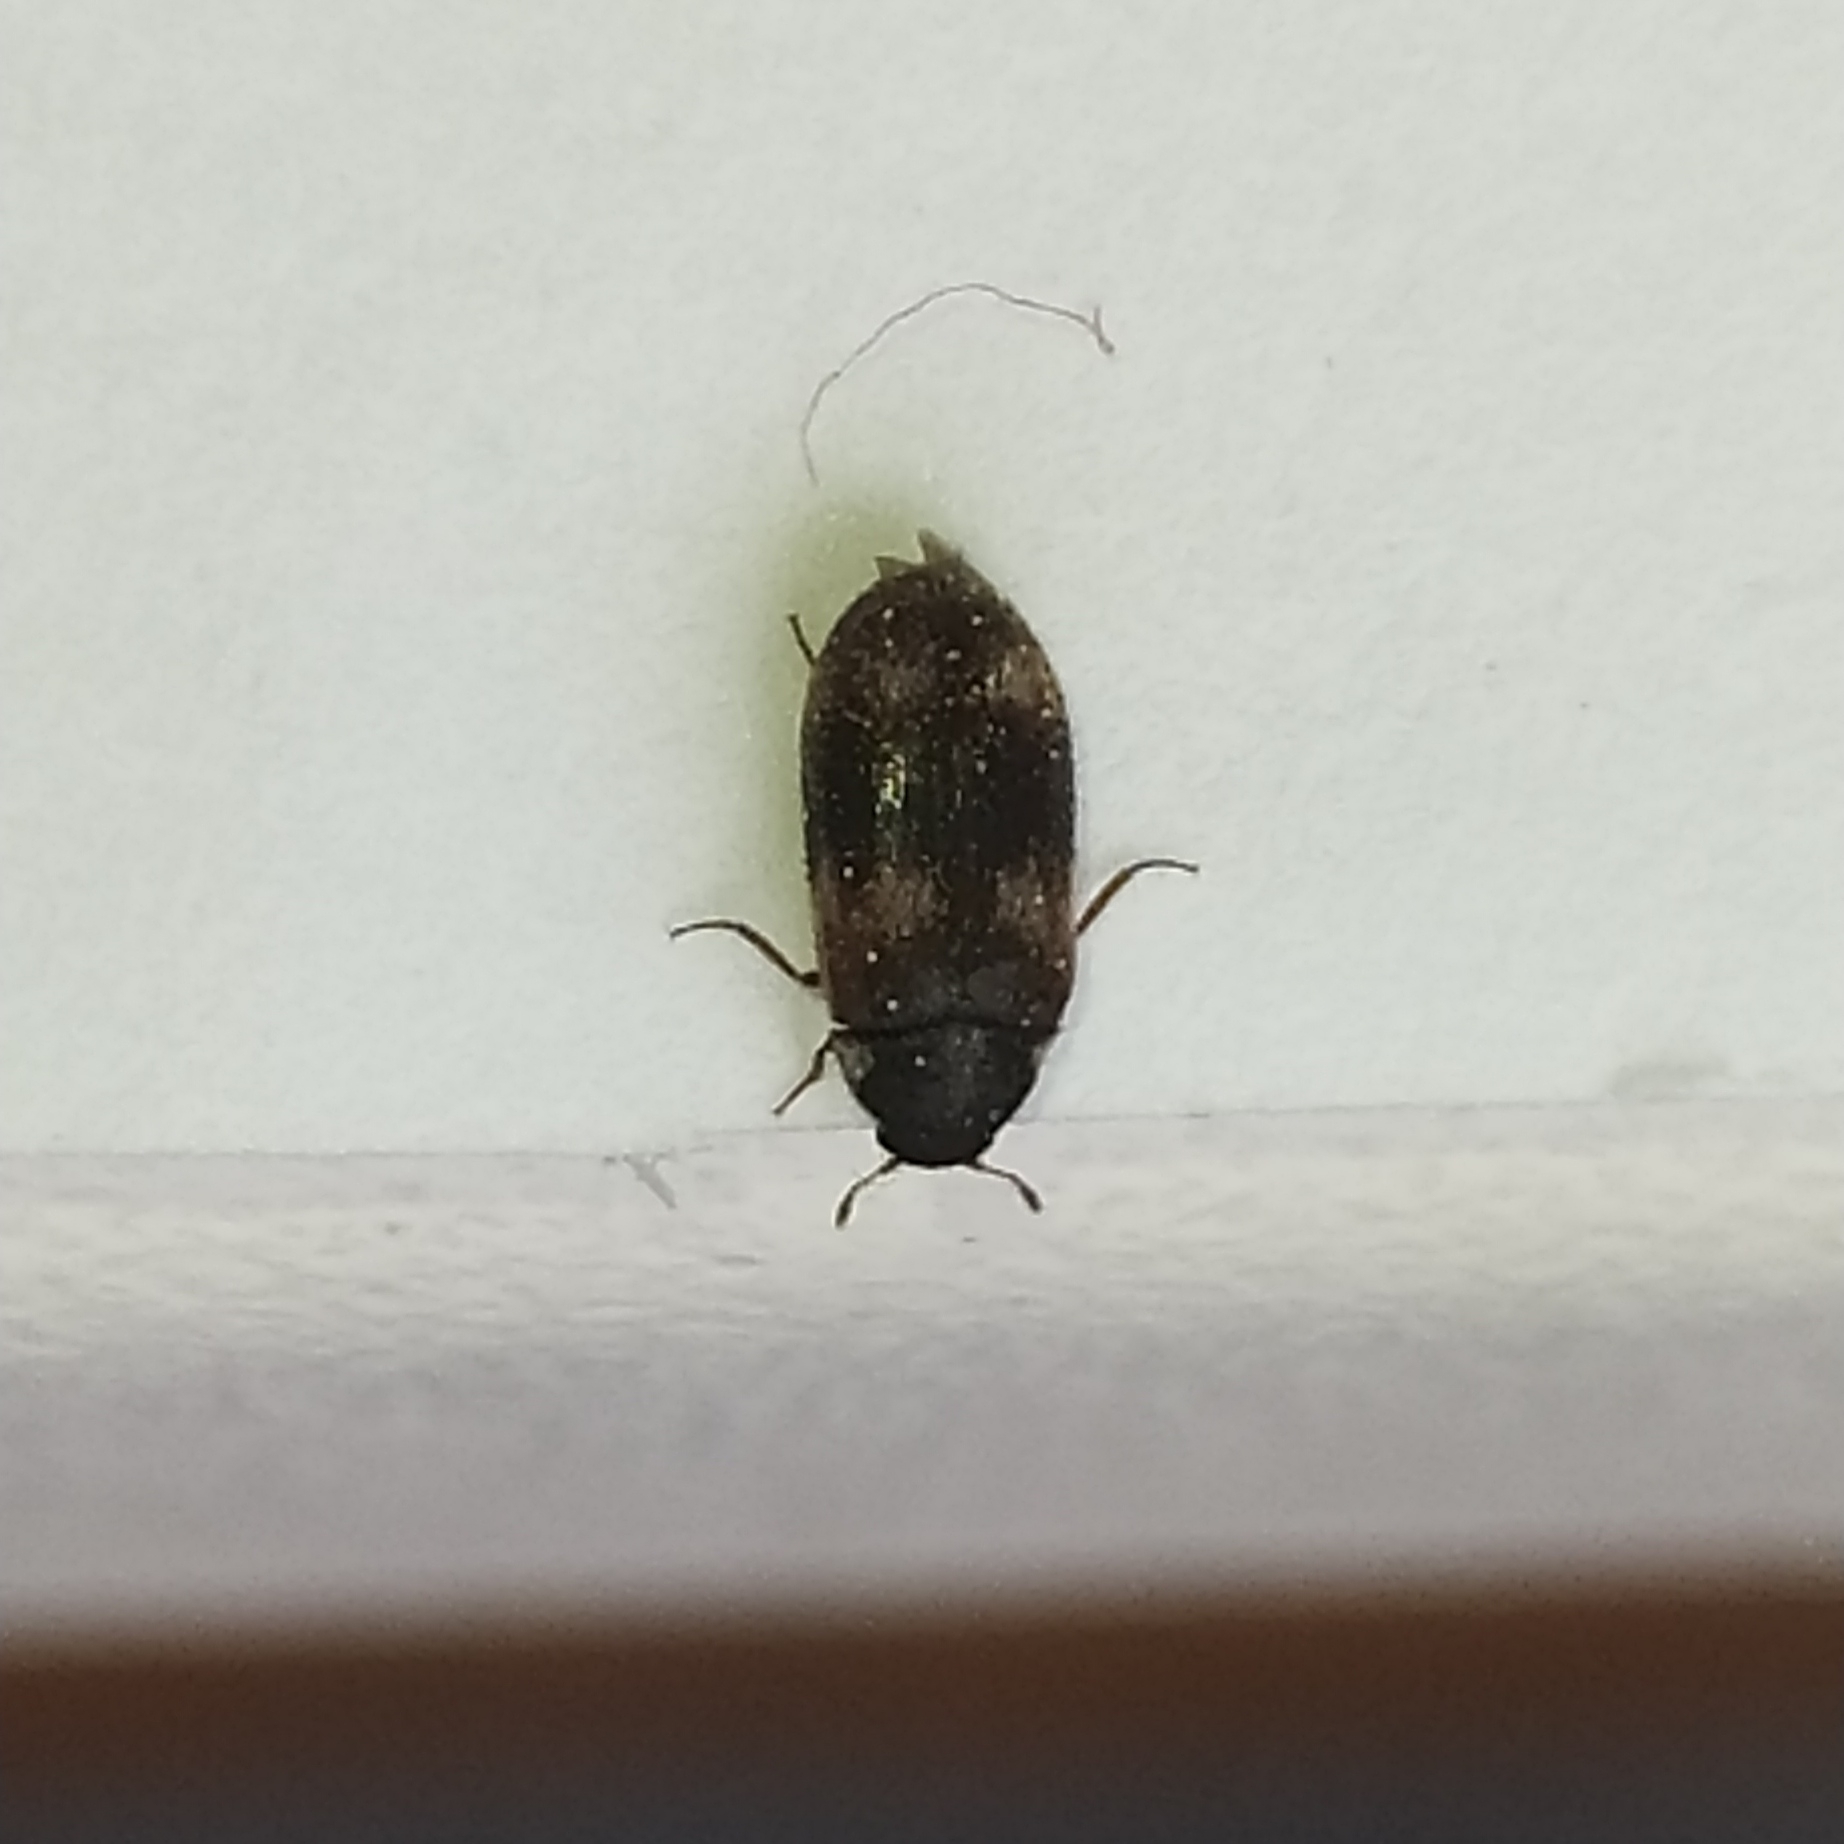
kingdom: Animalia
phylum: Arthropoda
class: Insecta
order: Coleoptera
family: Dermestidae
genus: Megatoma
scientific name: Megatoma tianschanica
